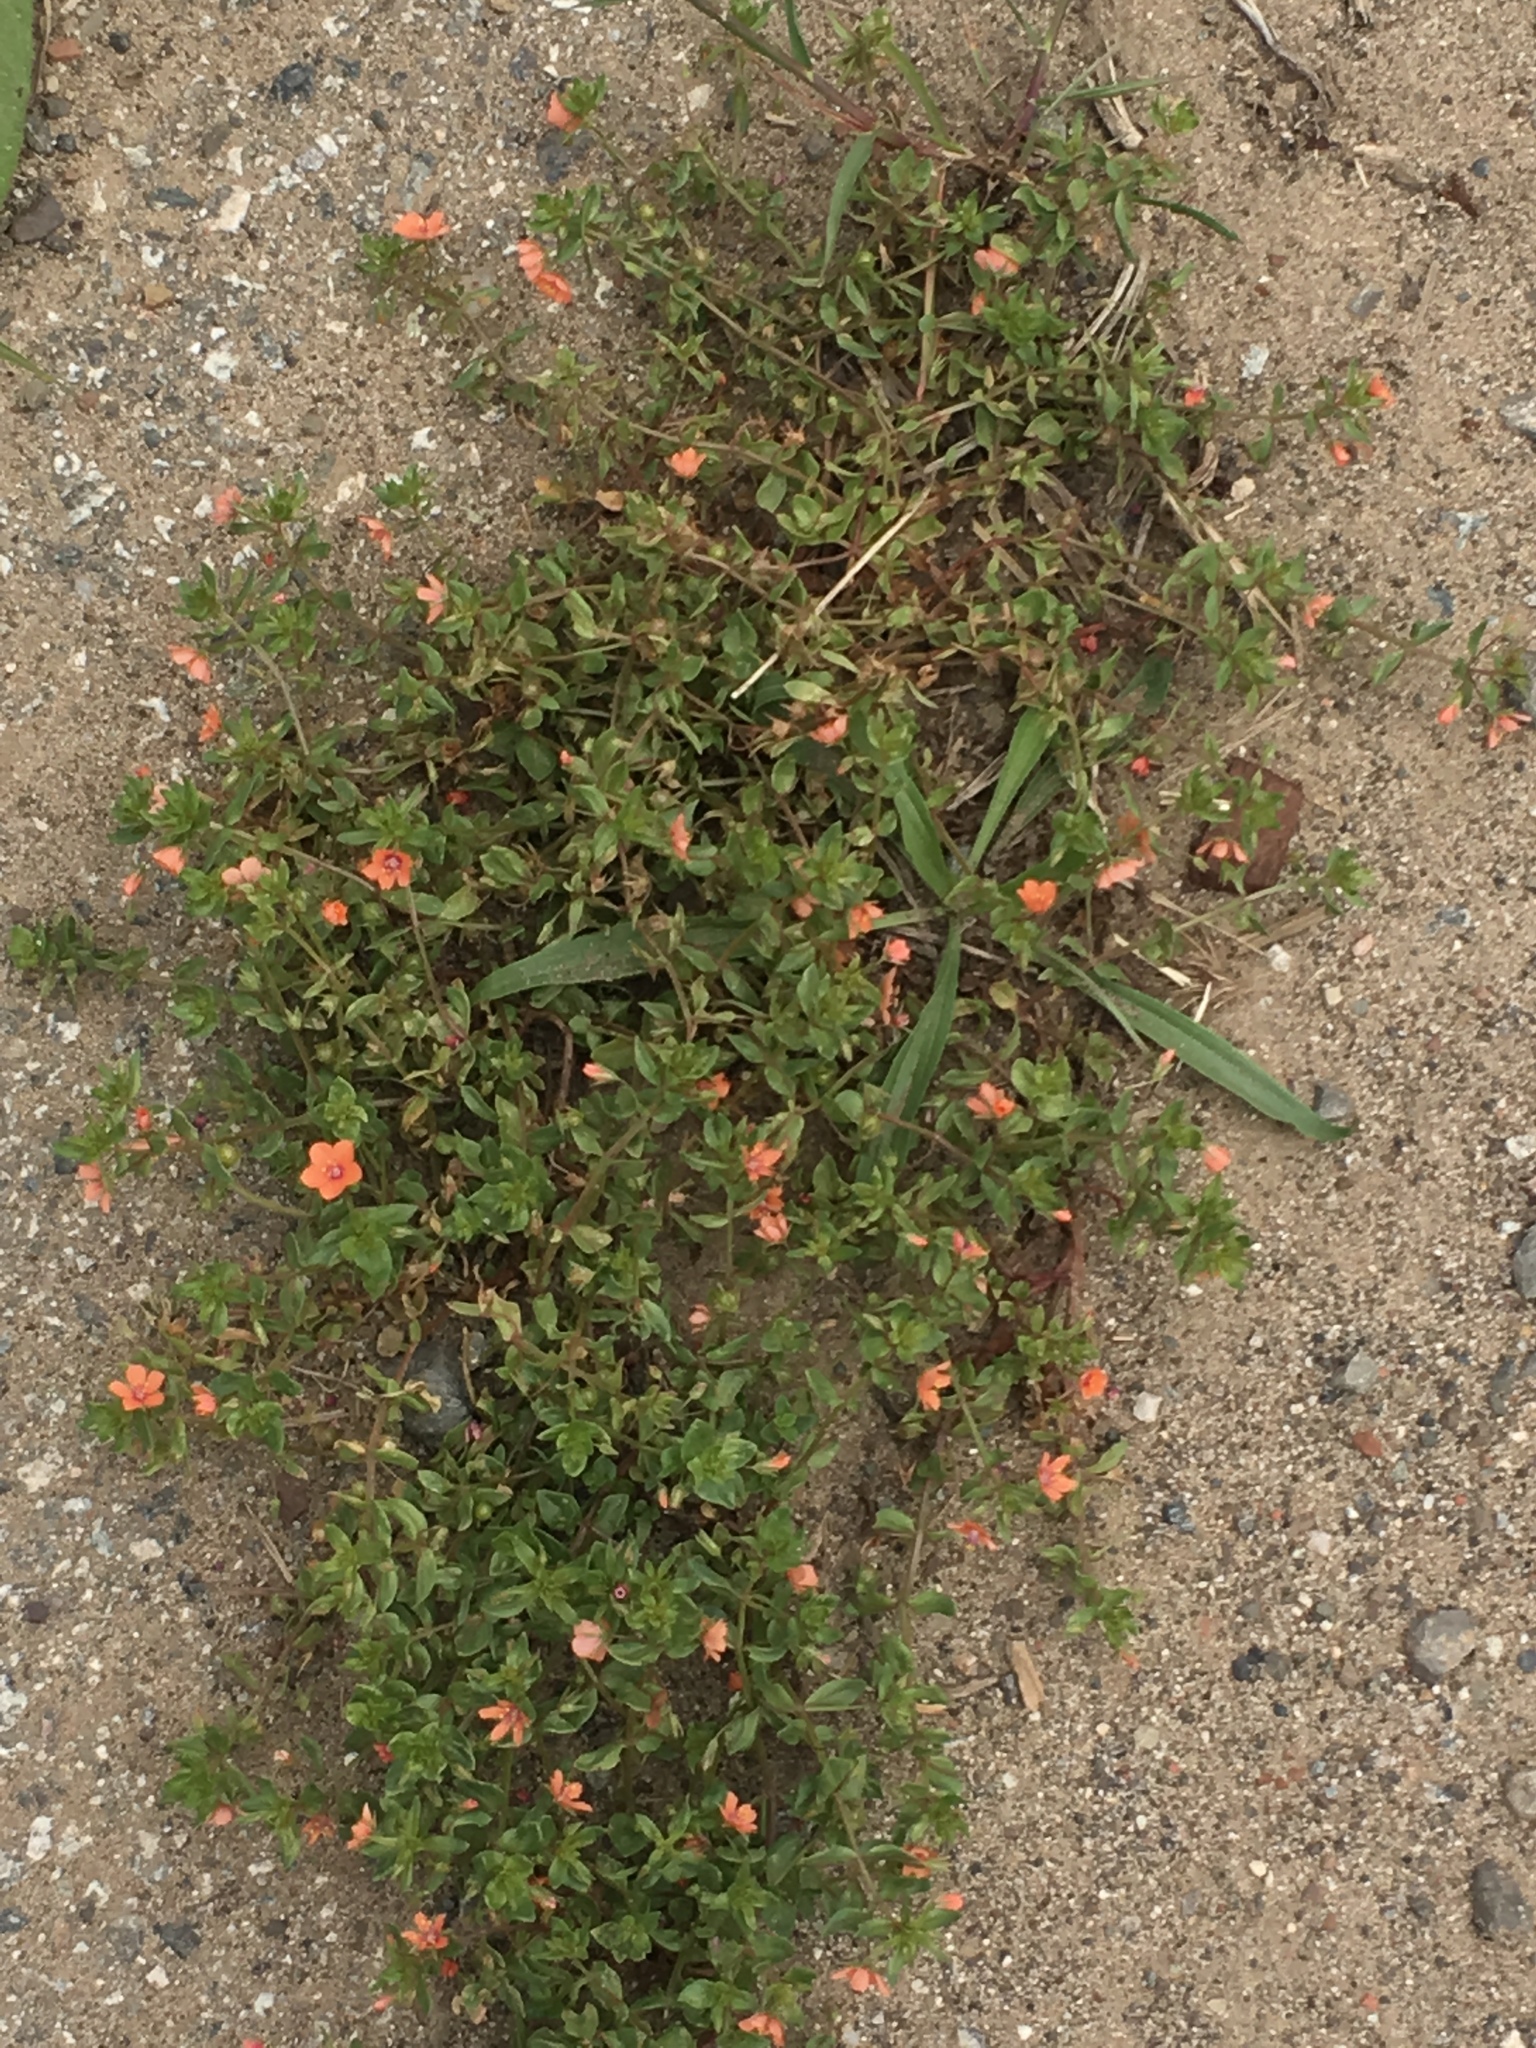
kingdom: Plantae
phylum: Tracheophyta
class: Magnoliopsida
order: Ericales
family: Primulaceae
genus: Lysimachia
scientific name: Lysimachia arvensis
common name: Scarlet pimpernel
